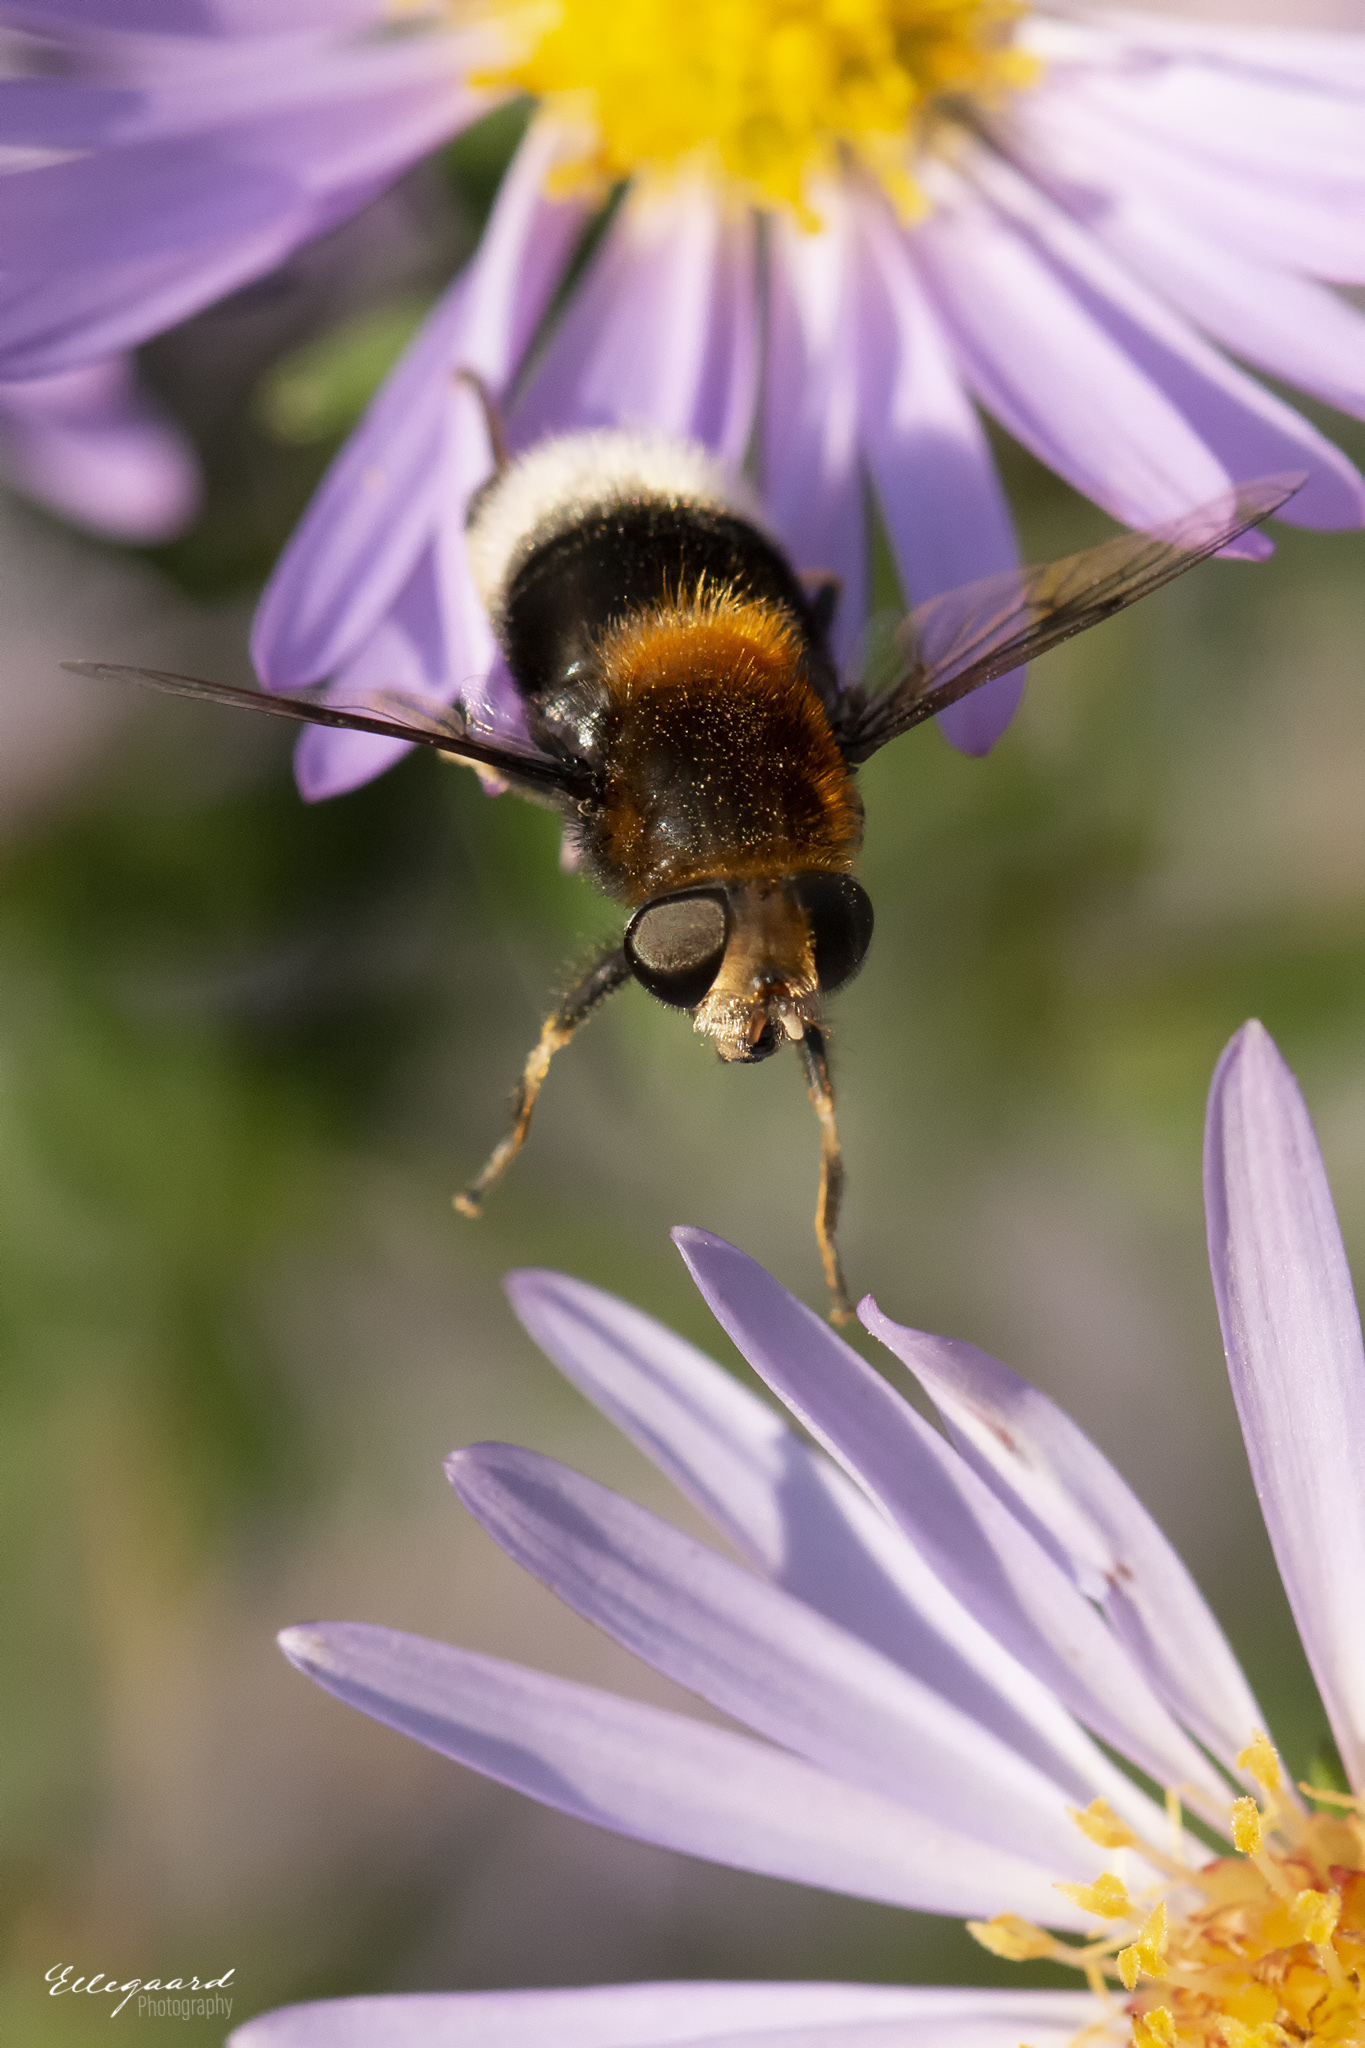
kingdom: Animalia
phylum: Arthropoda
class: Insecta
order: Diptera
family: Syrphidae
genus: Eristalis
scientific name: Eristalis intricaria
